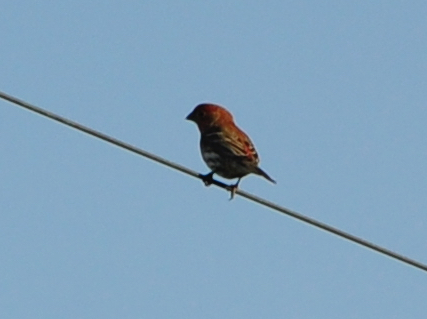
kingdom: Animalia
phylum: Chordata
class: Aves
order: Passeriformes
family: Fringillidae
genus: Haemorhous
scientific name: Haemorhous mexicanus
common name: House finch
